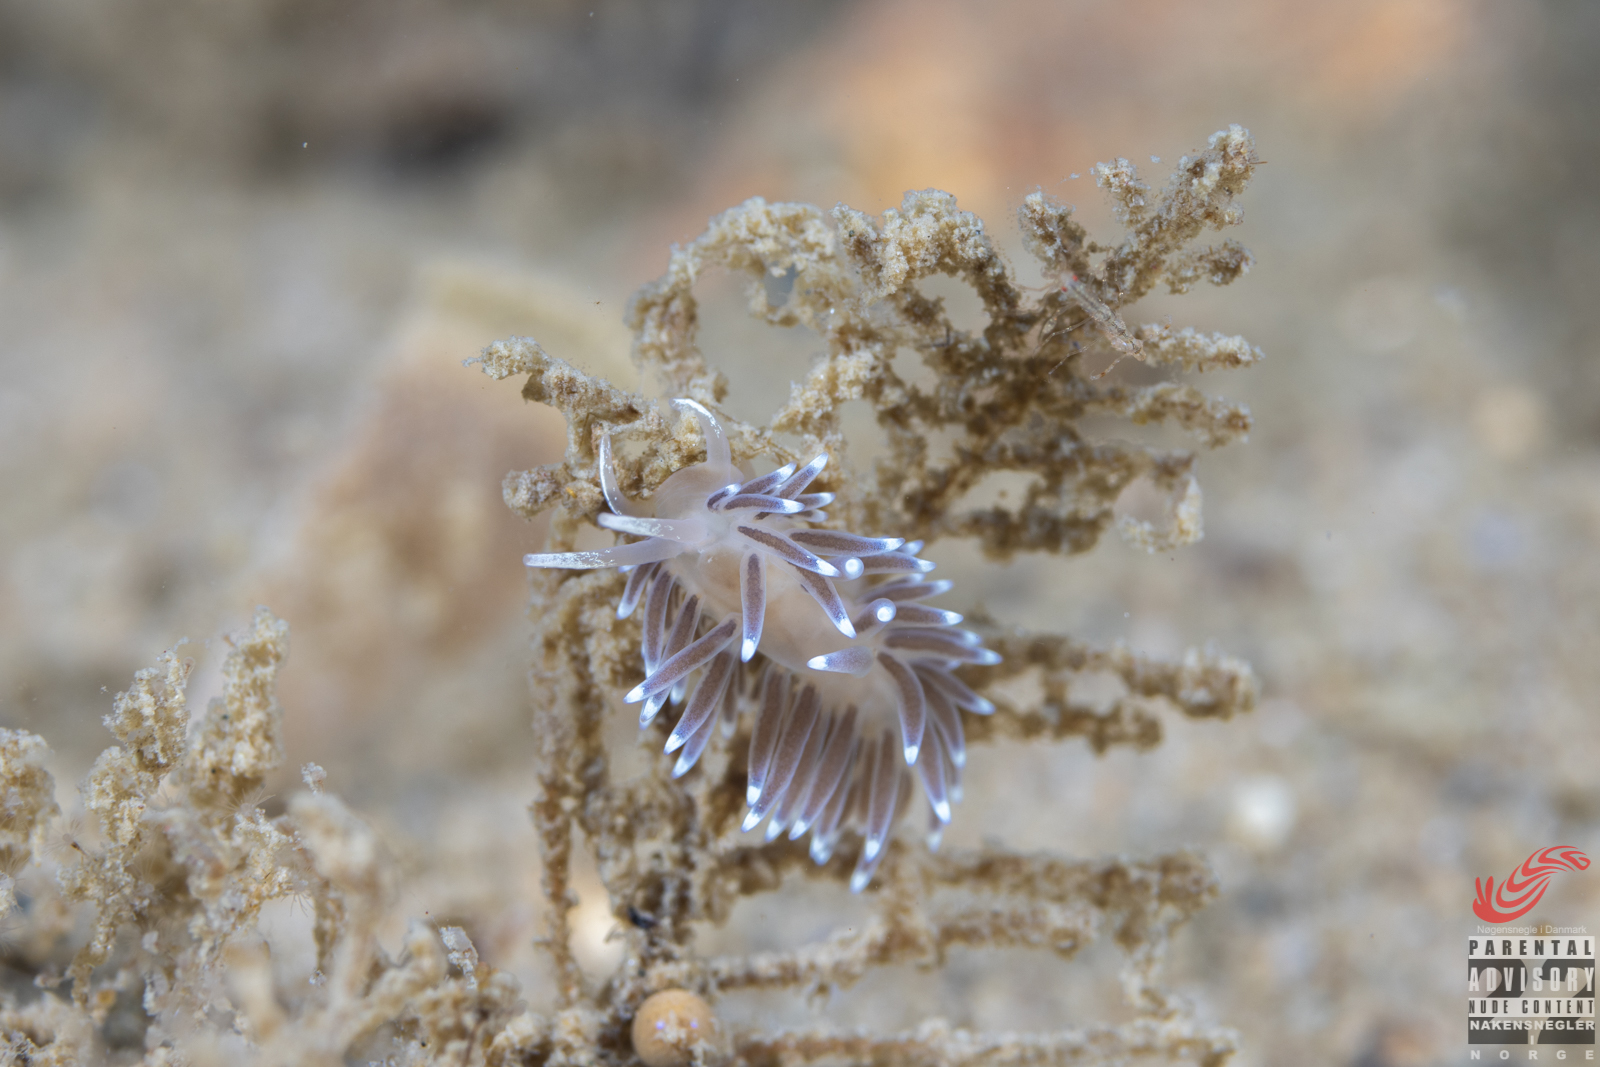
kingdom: Animalia
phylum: Mollusca
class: Gastropoda
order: Nudibranchia
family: Cuthonellidae
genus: Cuthonella
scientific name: Cuthonella concinna
